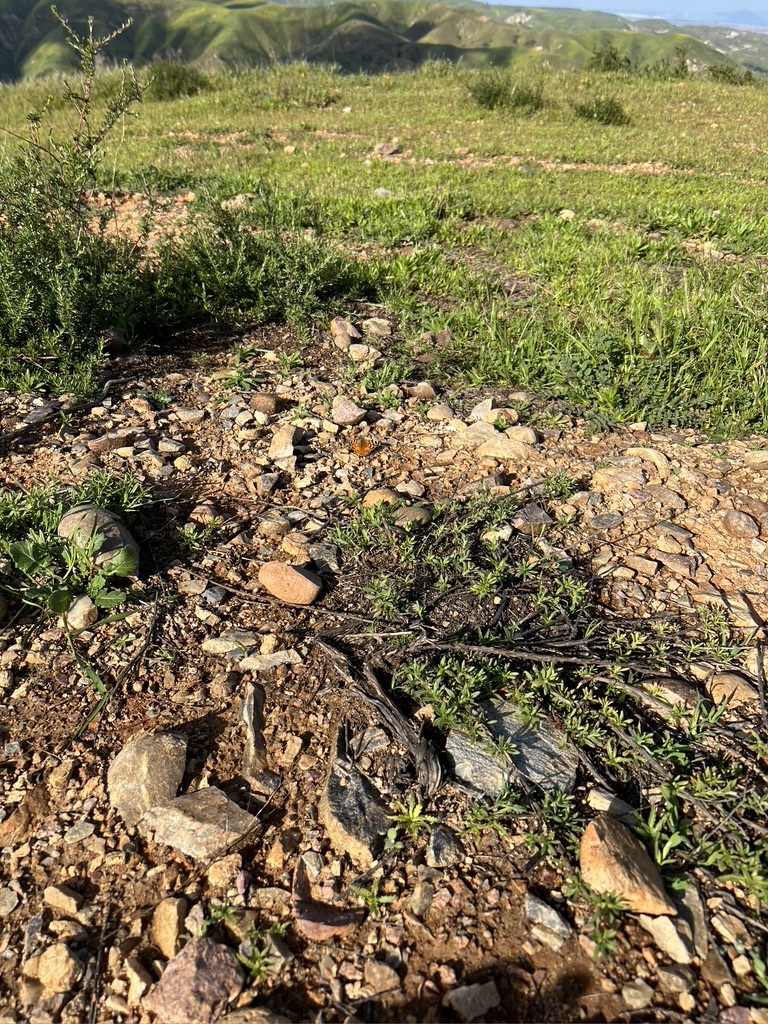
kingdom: Animalia
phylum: Arthropoda
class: Insecta
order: Lepidoptera
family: Nymphalidae
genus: Vanessa
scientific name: Vanessa annabella
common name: West coast lady
